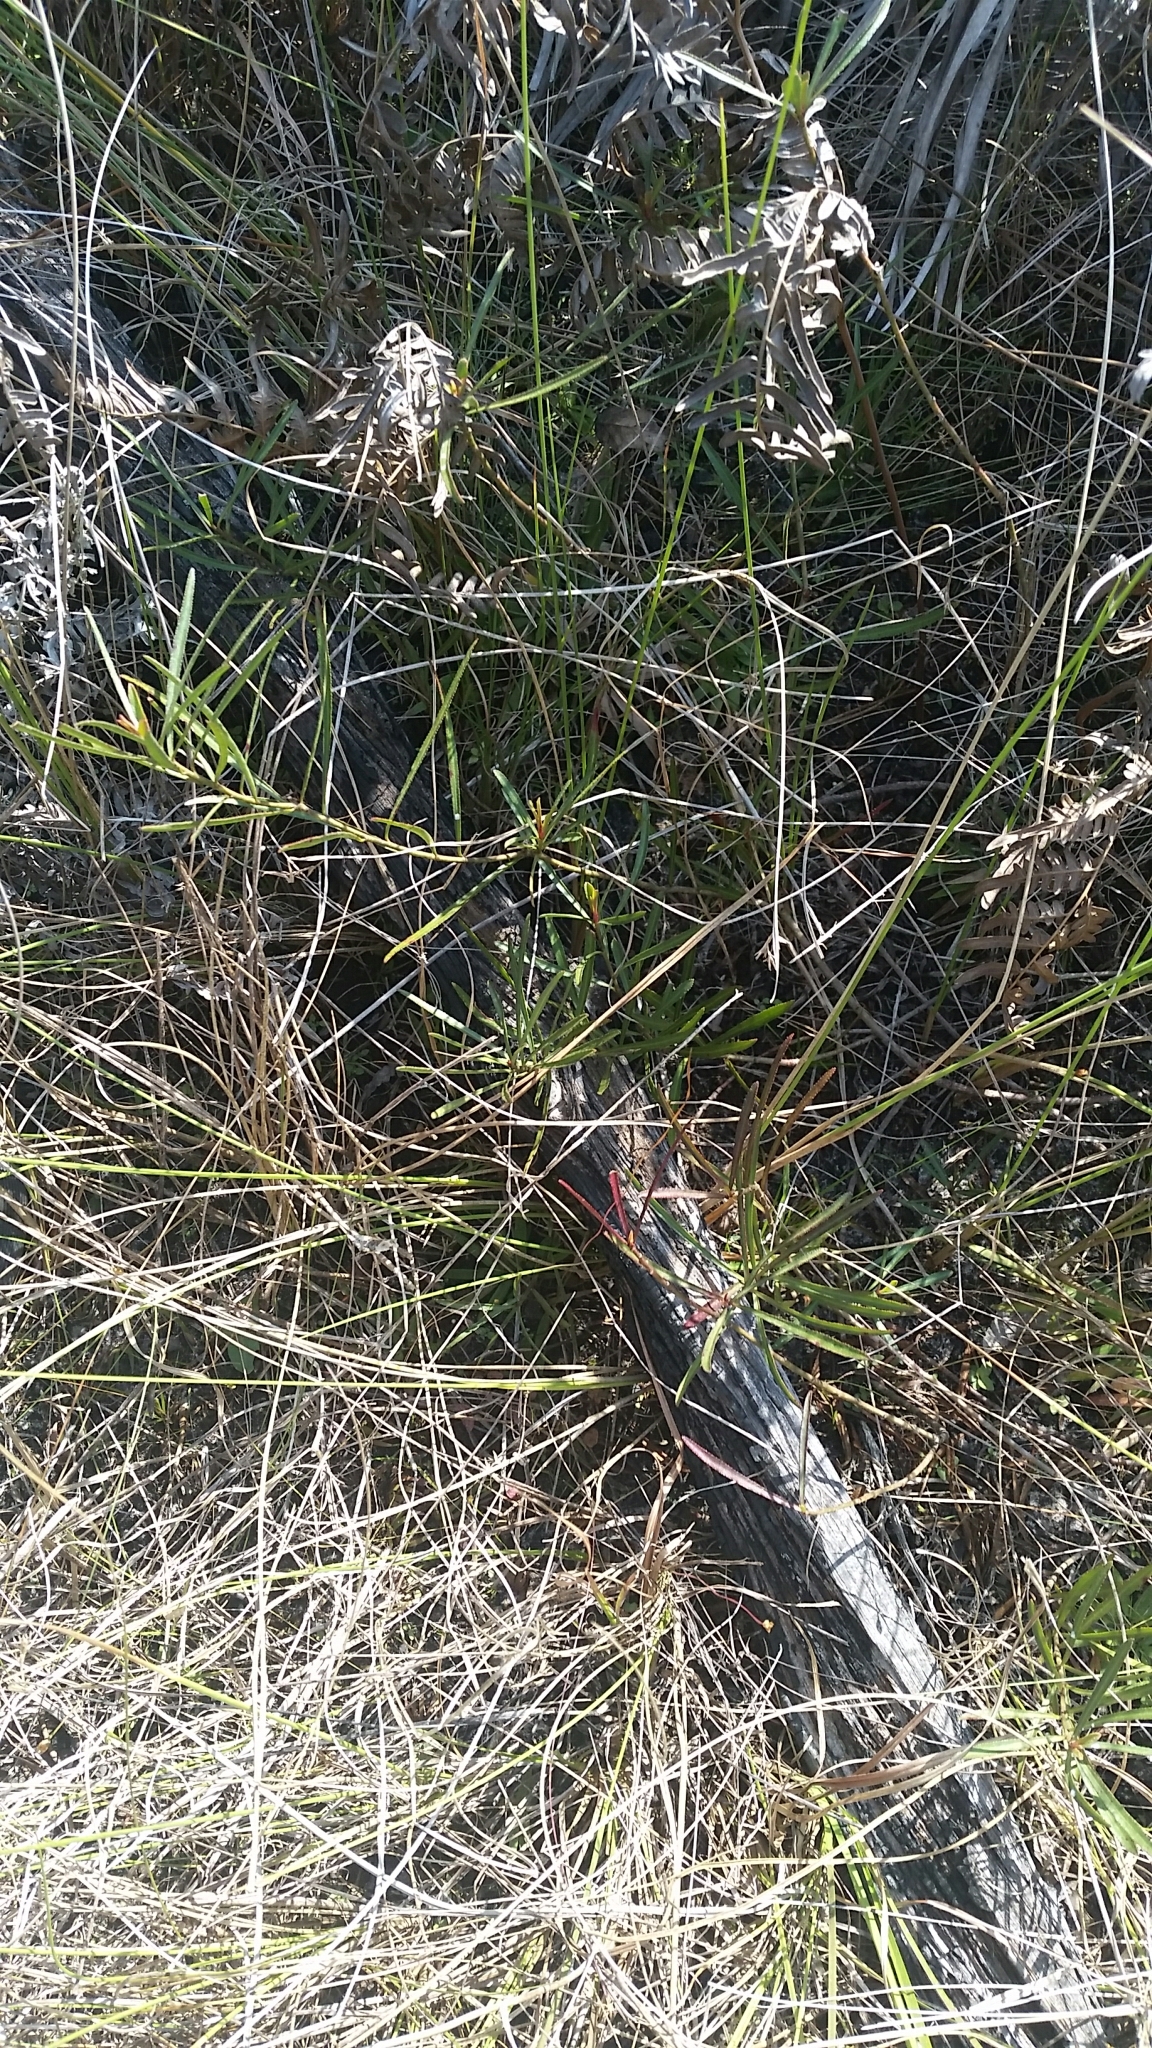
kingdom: Plantae
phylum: Tracheophyta
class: Magnoliopsida
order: Malpighiales
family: Euphorbiaceae
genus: Stillingia
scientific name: Stillingia sylvatica
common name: Queen's-delight
